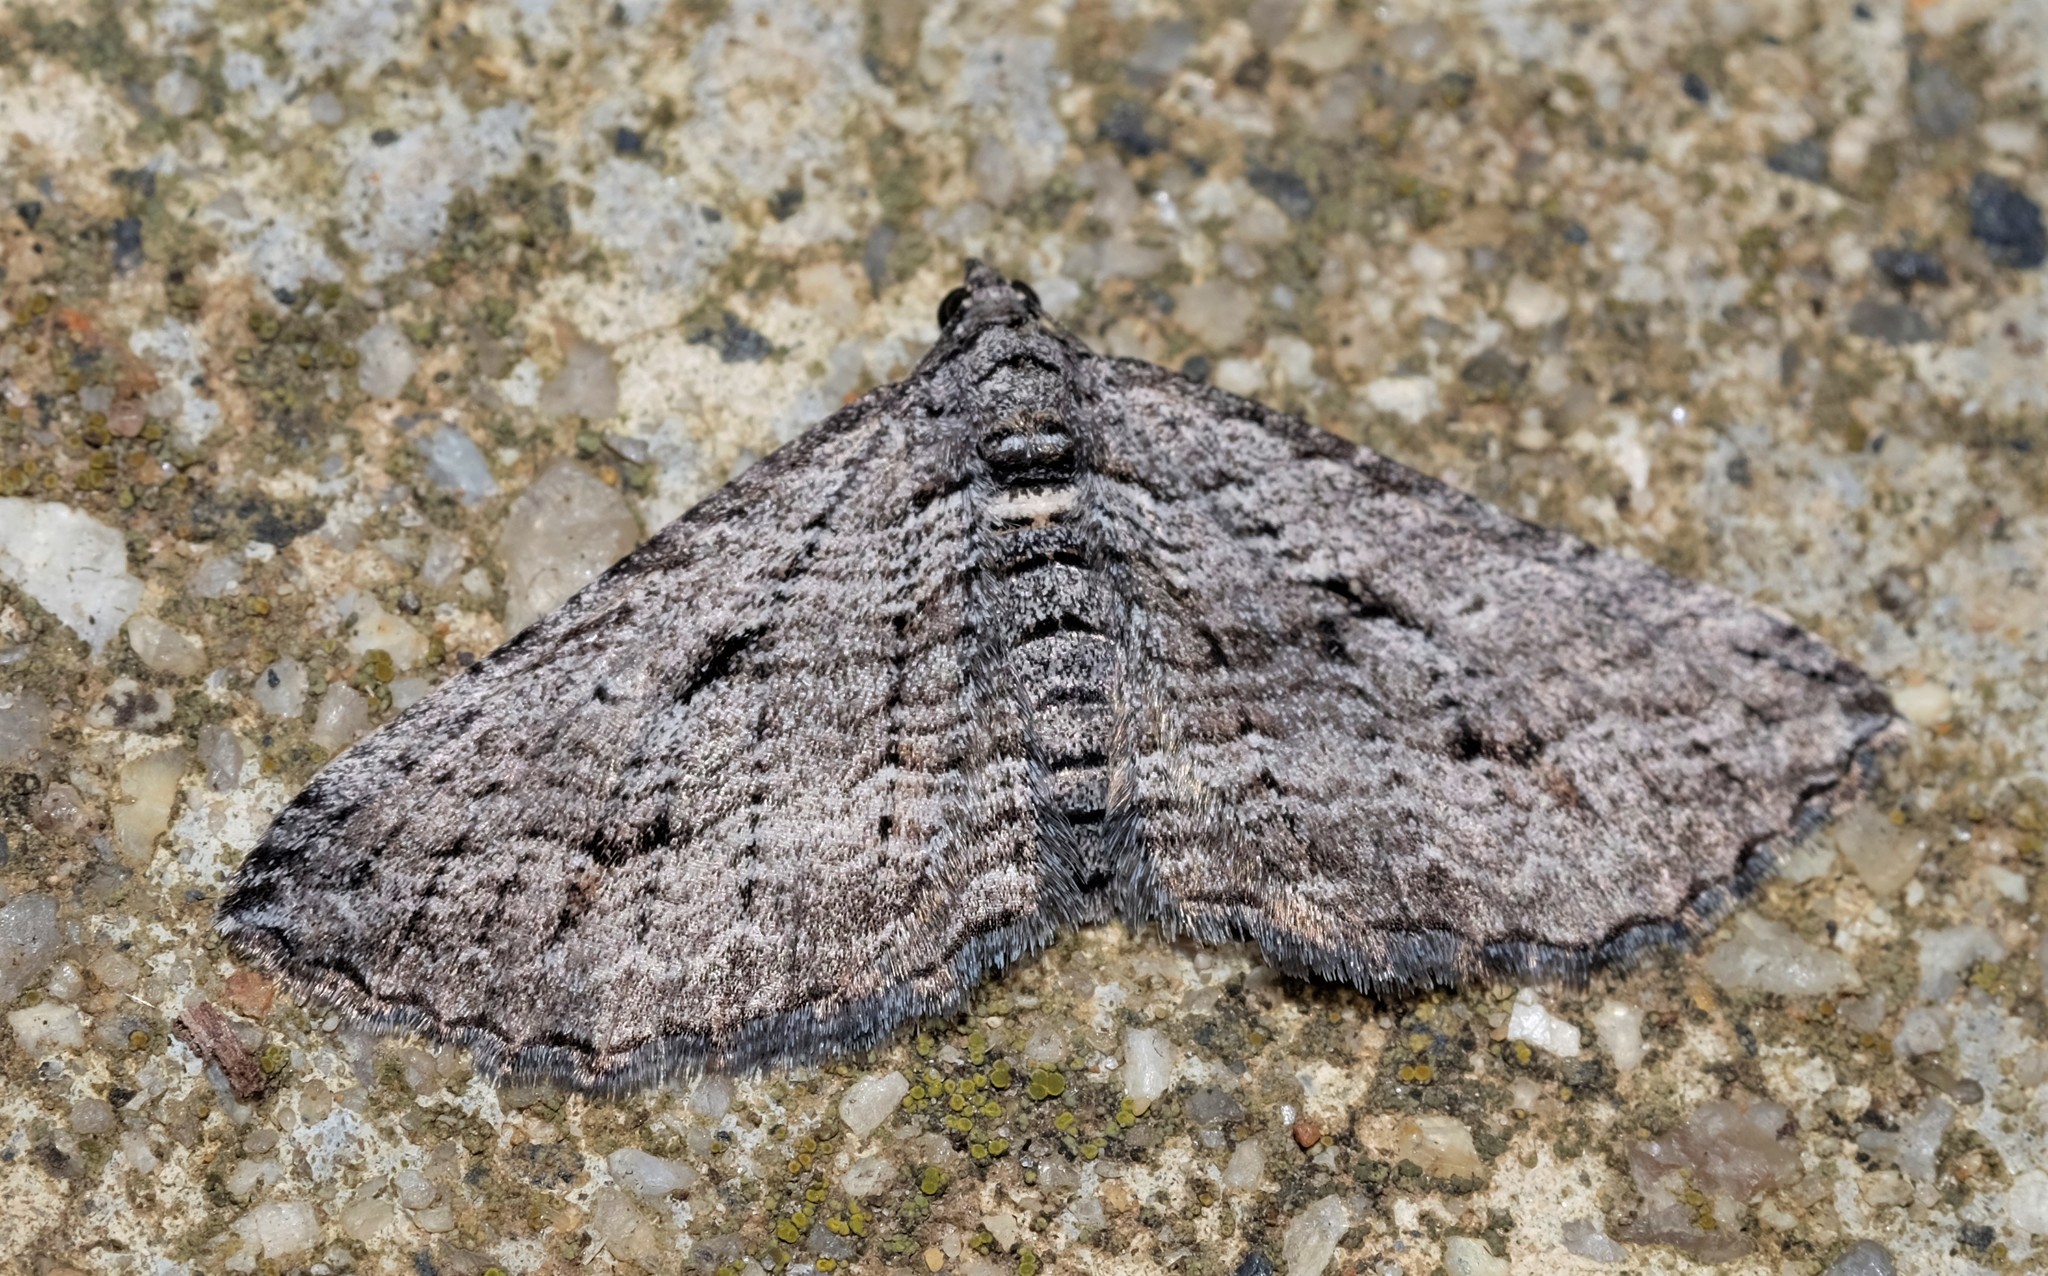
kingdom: Animalia
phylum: Arthropoda
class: Insecta
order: Lepidoptera
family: Geometridae
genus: Chrysolarentia
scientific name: Chrysolarentia severata
